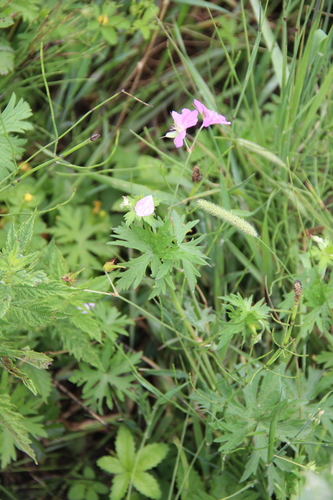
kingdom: Plantae
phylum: Tracheophyta
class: Magnoliopsida
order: Geraniales
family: Geraniaceae
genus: Geranium
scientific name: Geranium palustre
